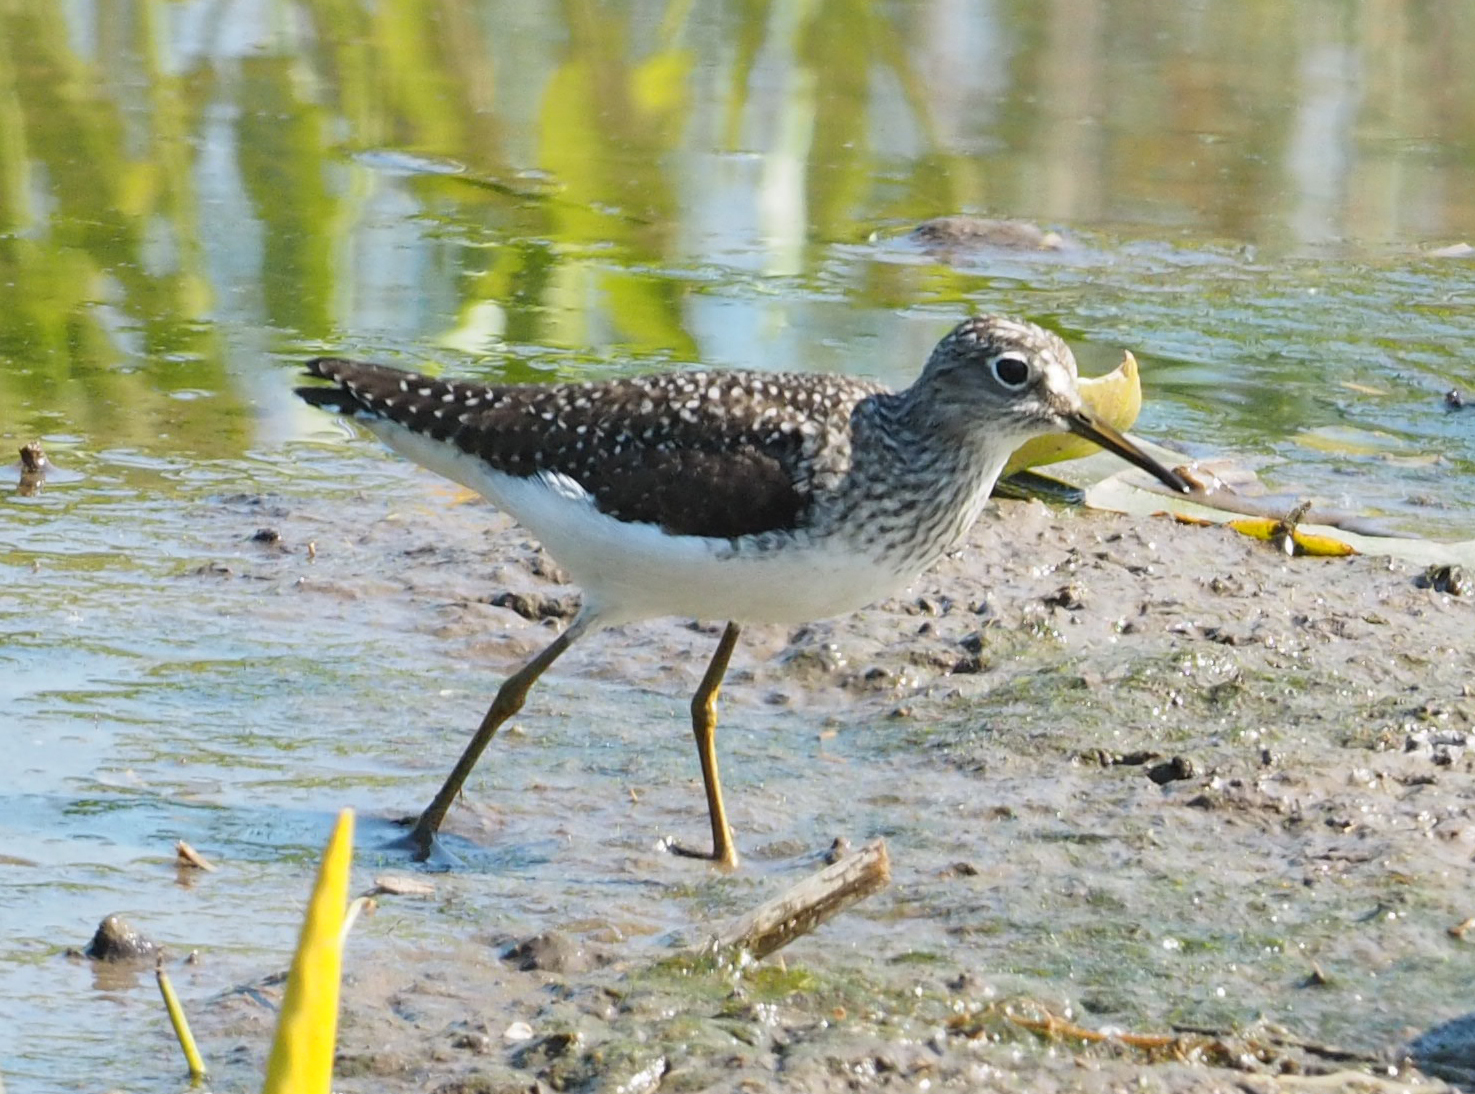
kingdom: Animalia
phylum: Chordata
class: Aves
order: Charadriiformes
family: Scolopacidae
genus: Tringa
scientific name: Tringa solitaria
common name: Solitary sandpiper
